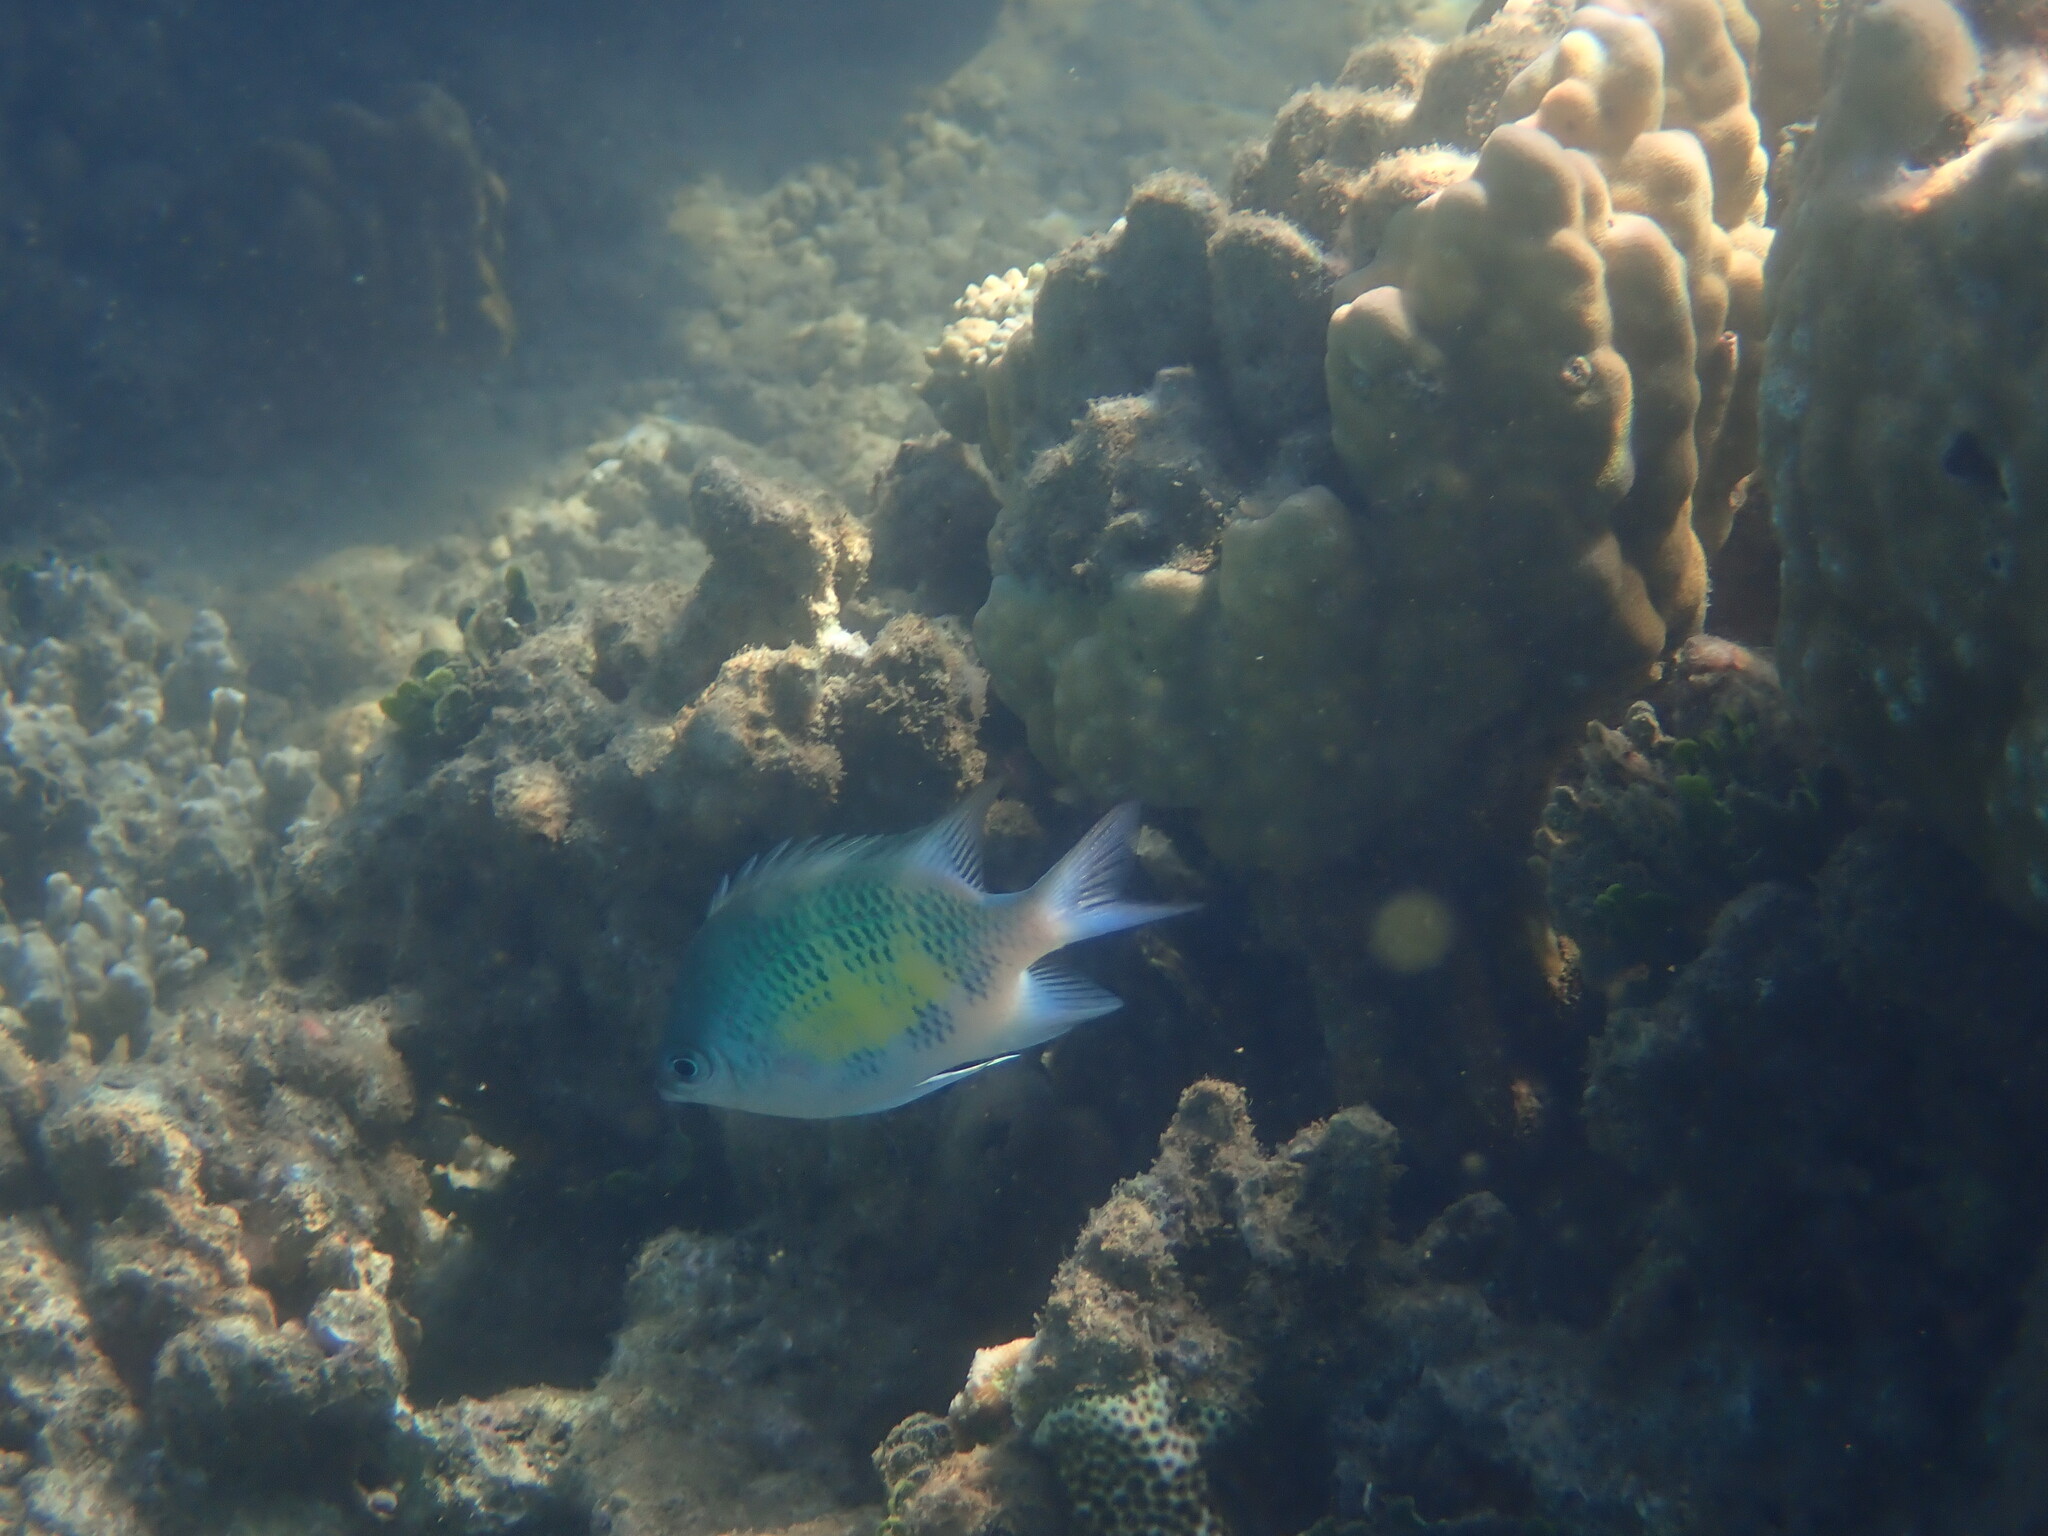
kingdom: Animalia
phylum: Chordata
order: Perciformes
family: Pomacentridae
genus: Amblyglyphidodon
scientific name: Amblyglyphidodon curacao
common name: Staghorn damsel
